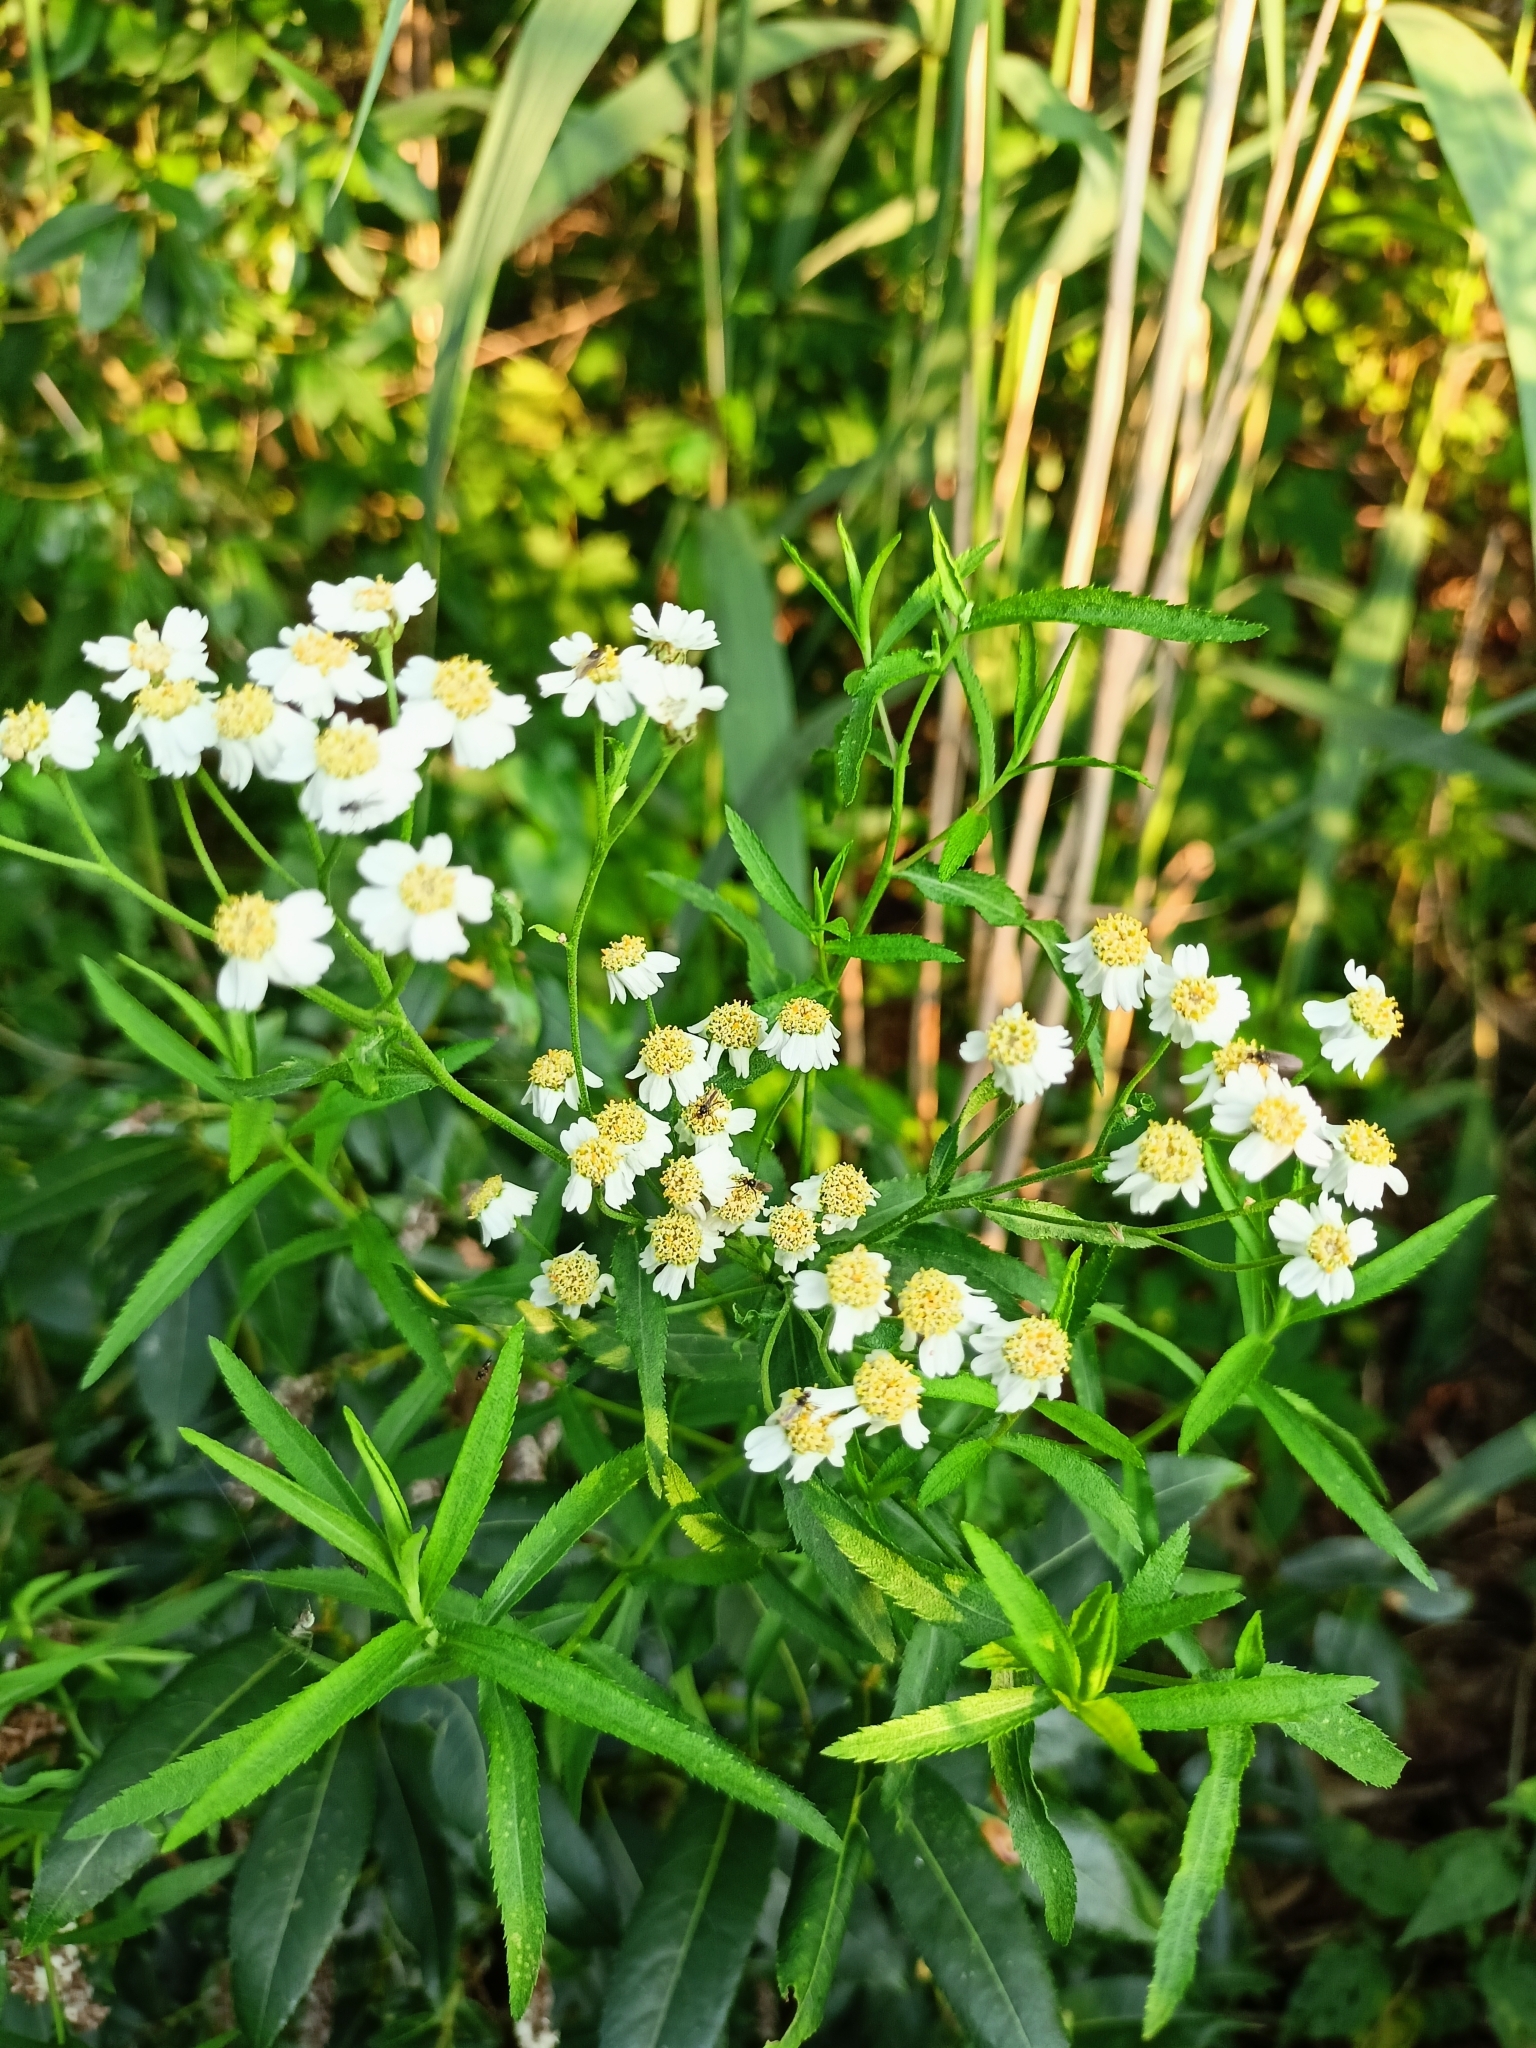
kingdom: Plantae
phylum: Tracheophyta
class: Magnoliopsida
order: Asterales
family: Asteraceae
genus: Achillea
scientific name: Achillea salicifolia
